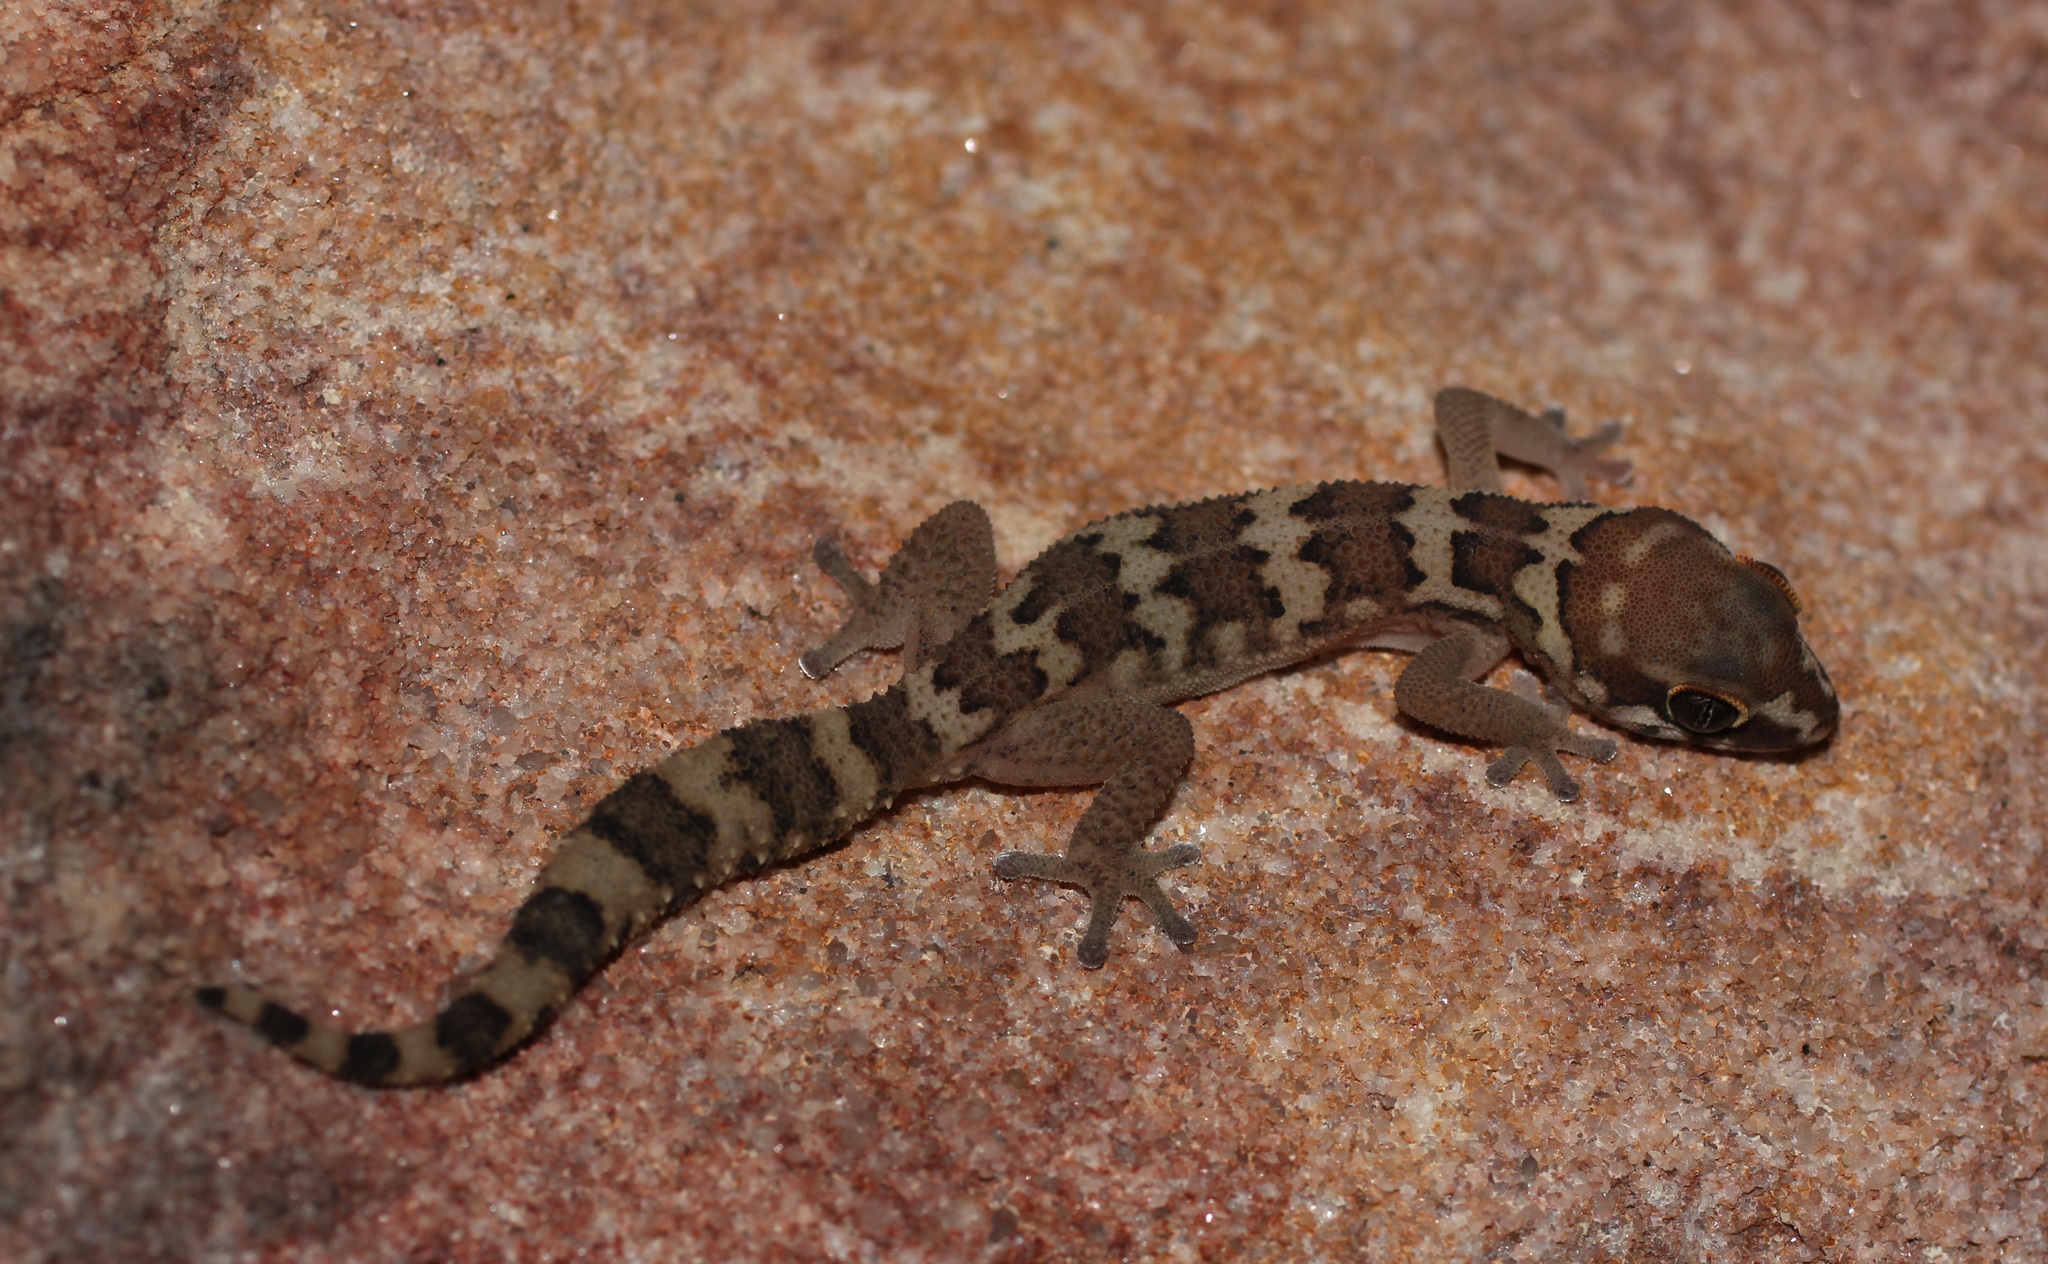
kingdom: Animalia
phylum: Chordata
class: Squamata
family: Gekkonidae
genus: Pachydactylus
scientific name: Pachydactylus formosus
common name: Southern rough gecko
